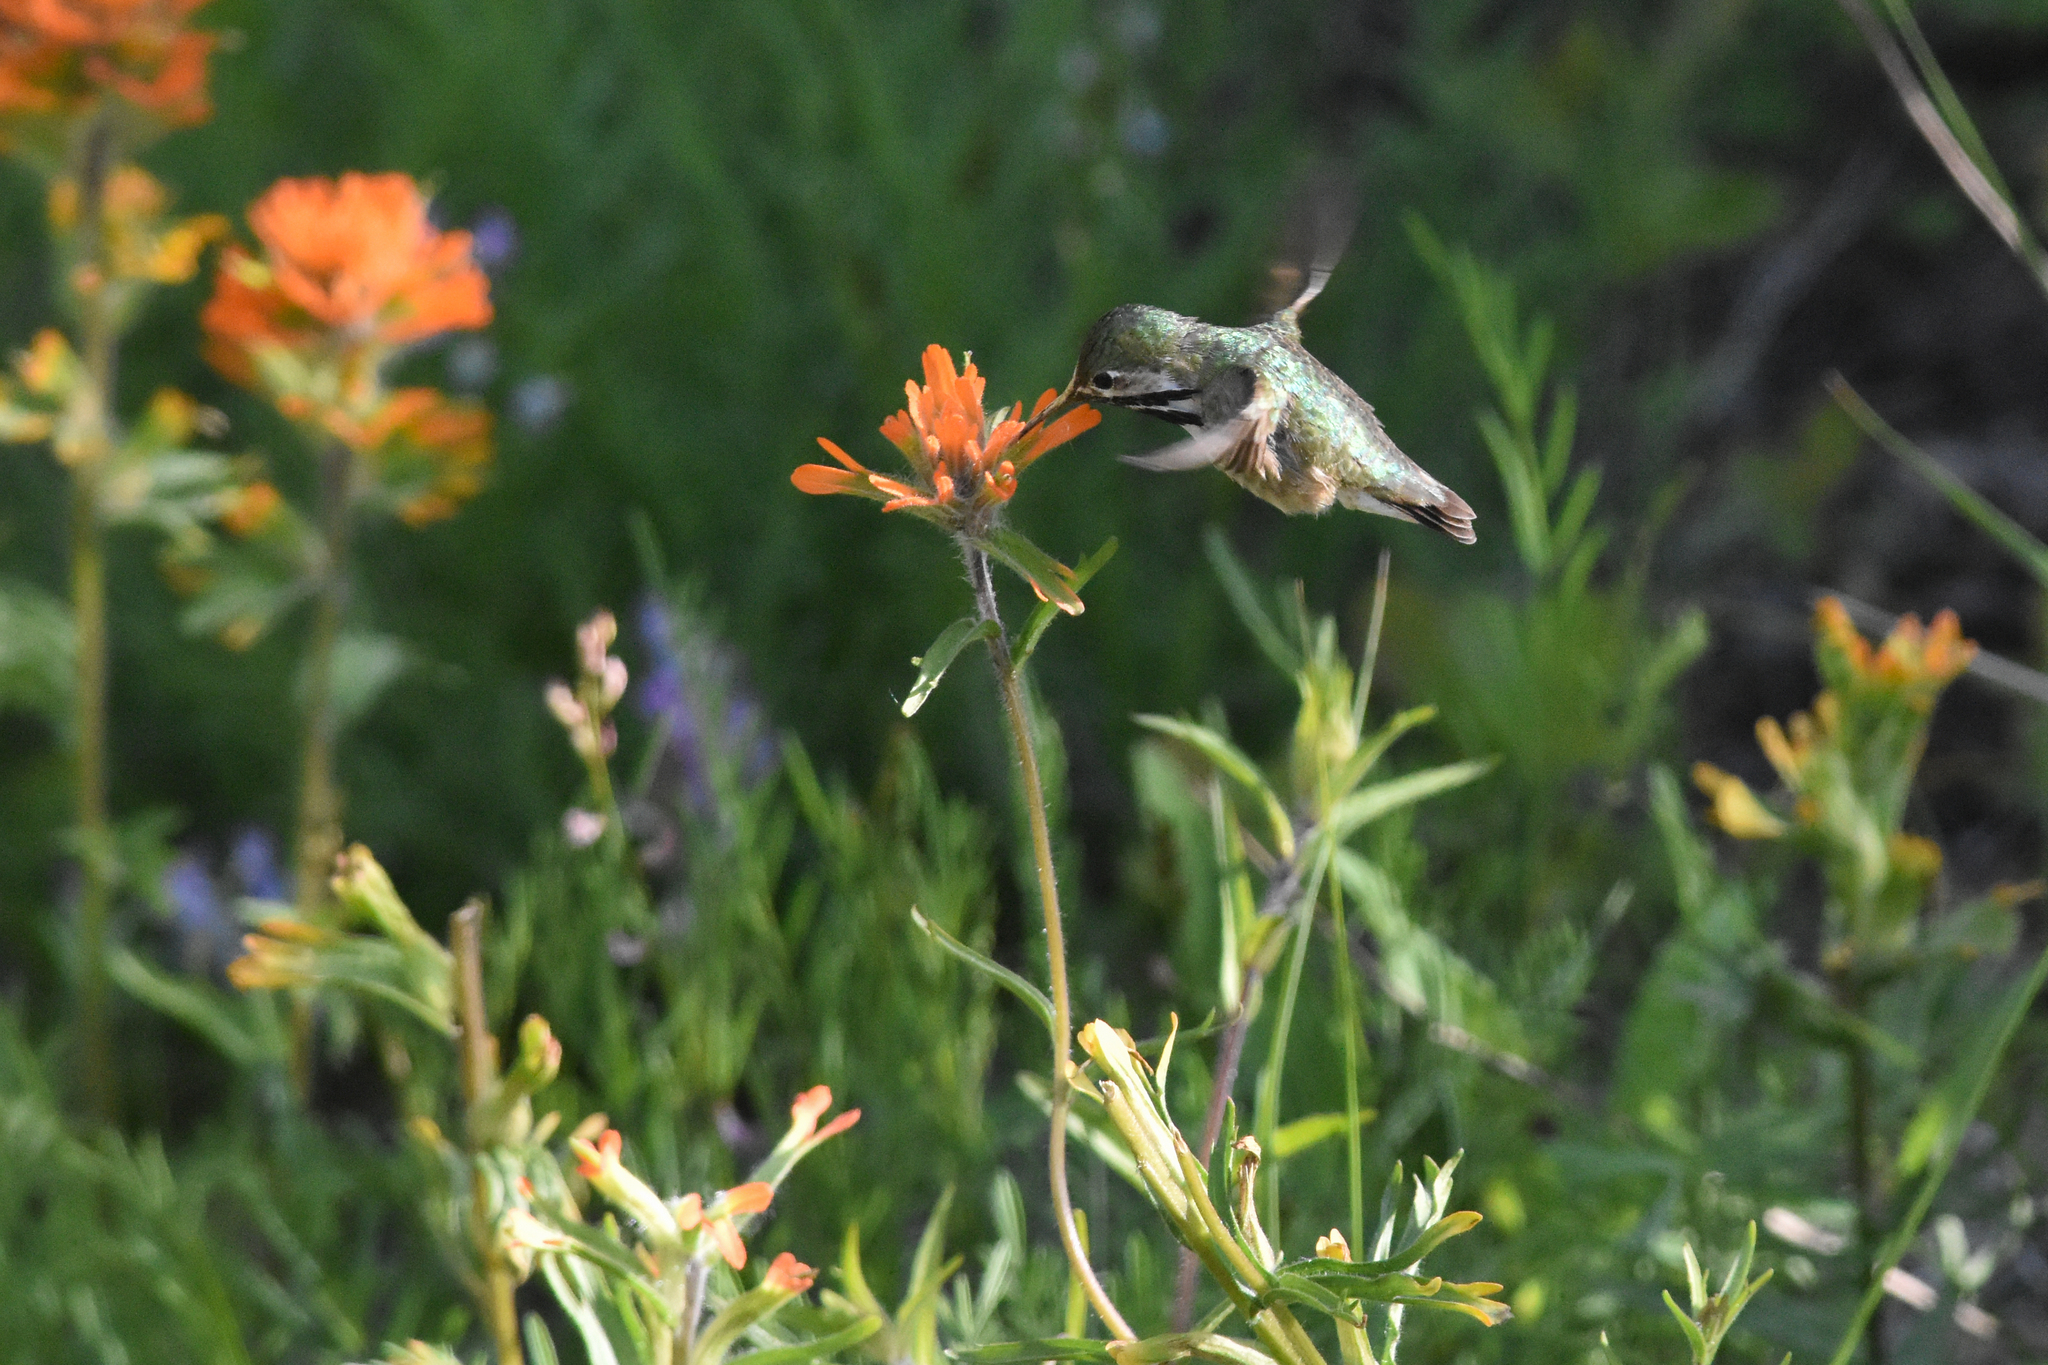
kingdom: Animalia
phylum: Chordata
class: Aves
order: Apodiformes
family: Trochilidae
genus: Selasphorus
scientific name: Selasphorus calliope
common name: Calliope hummingbird
